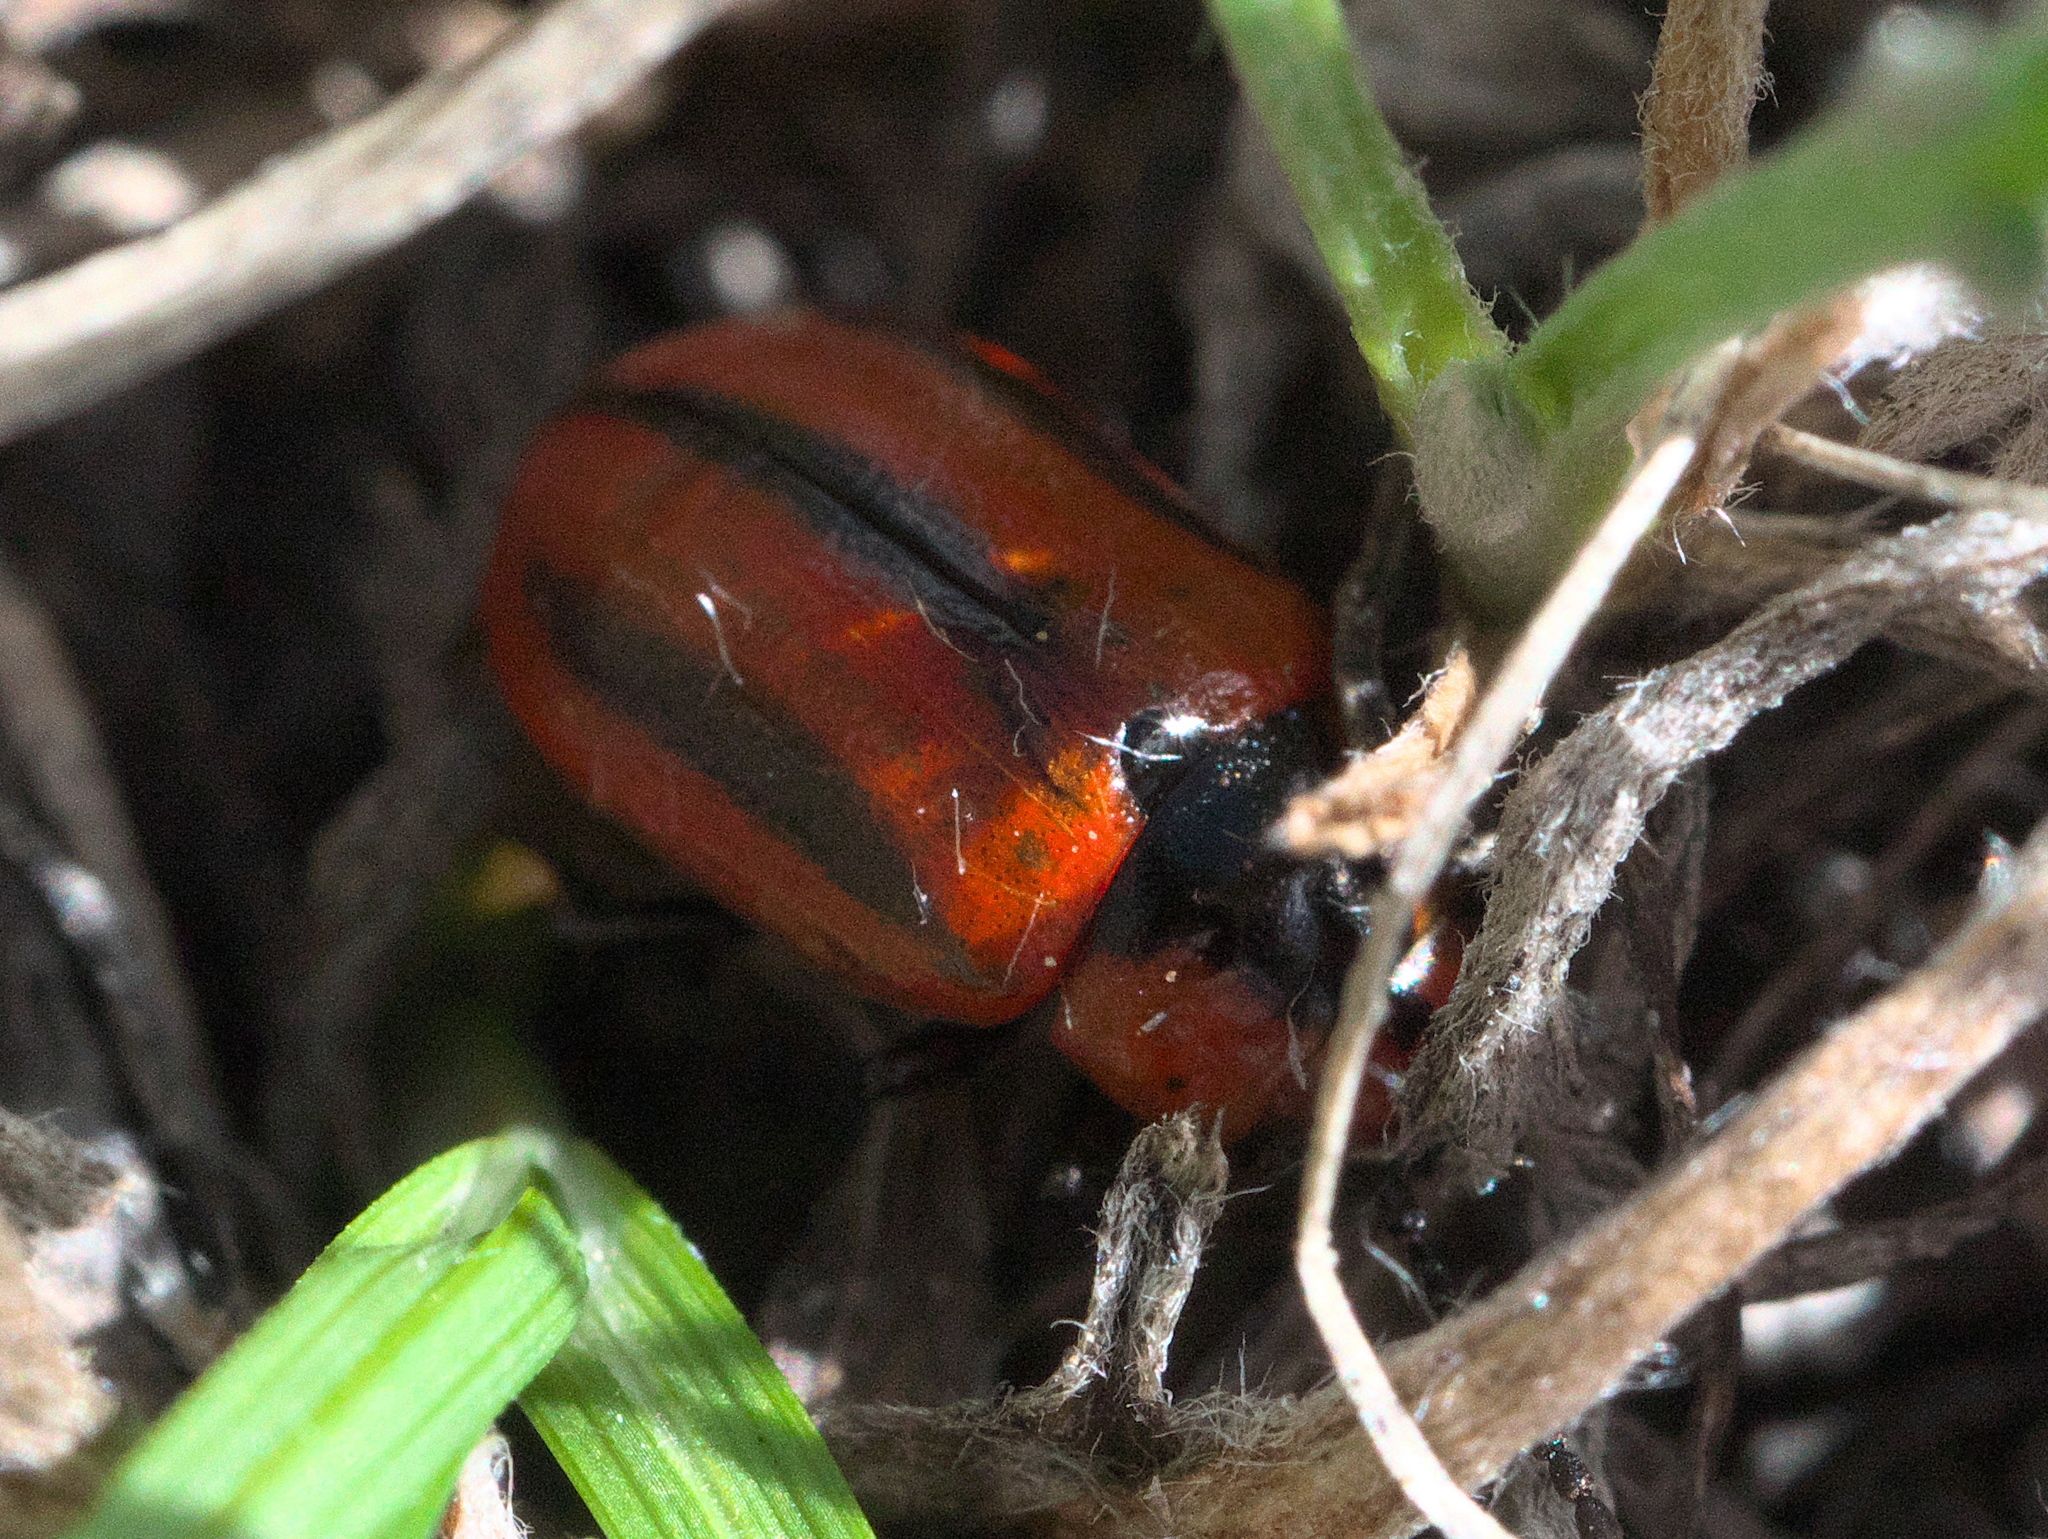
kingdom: Animalia
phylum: Arthropoda
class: Insecta
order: Coleoptera
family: Chrysomelidae
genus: Entomoscelis
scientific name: Entomoscelis americana
